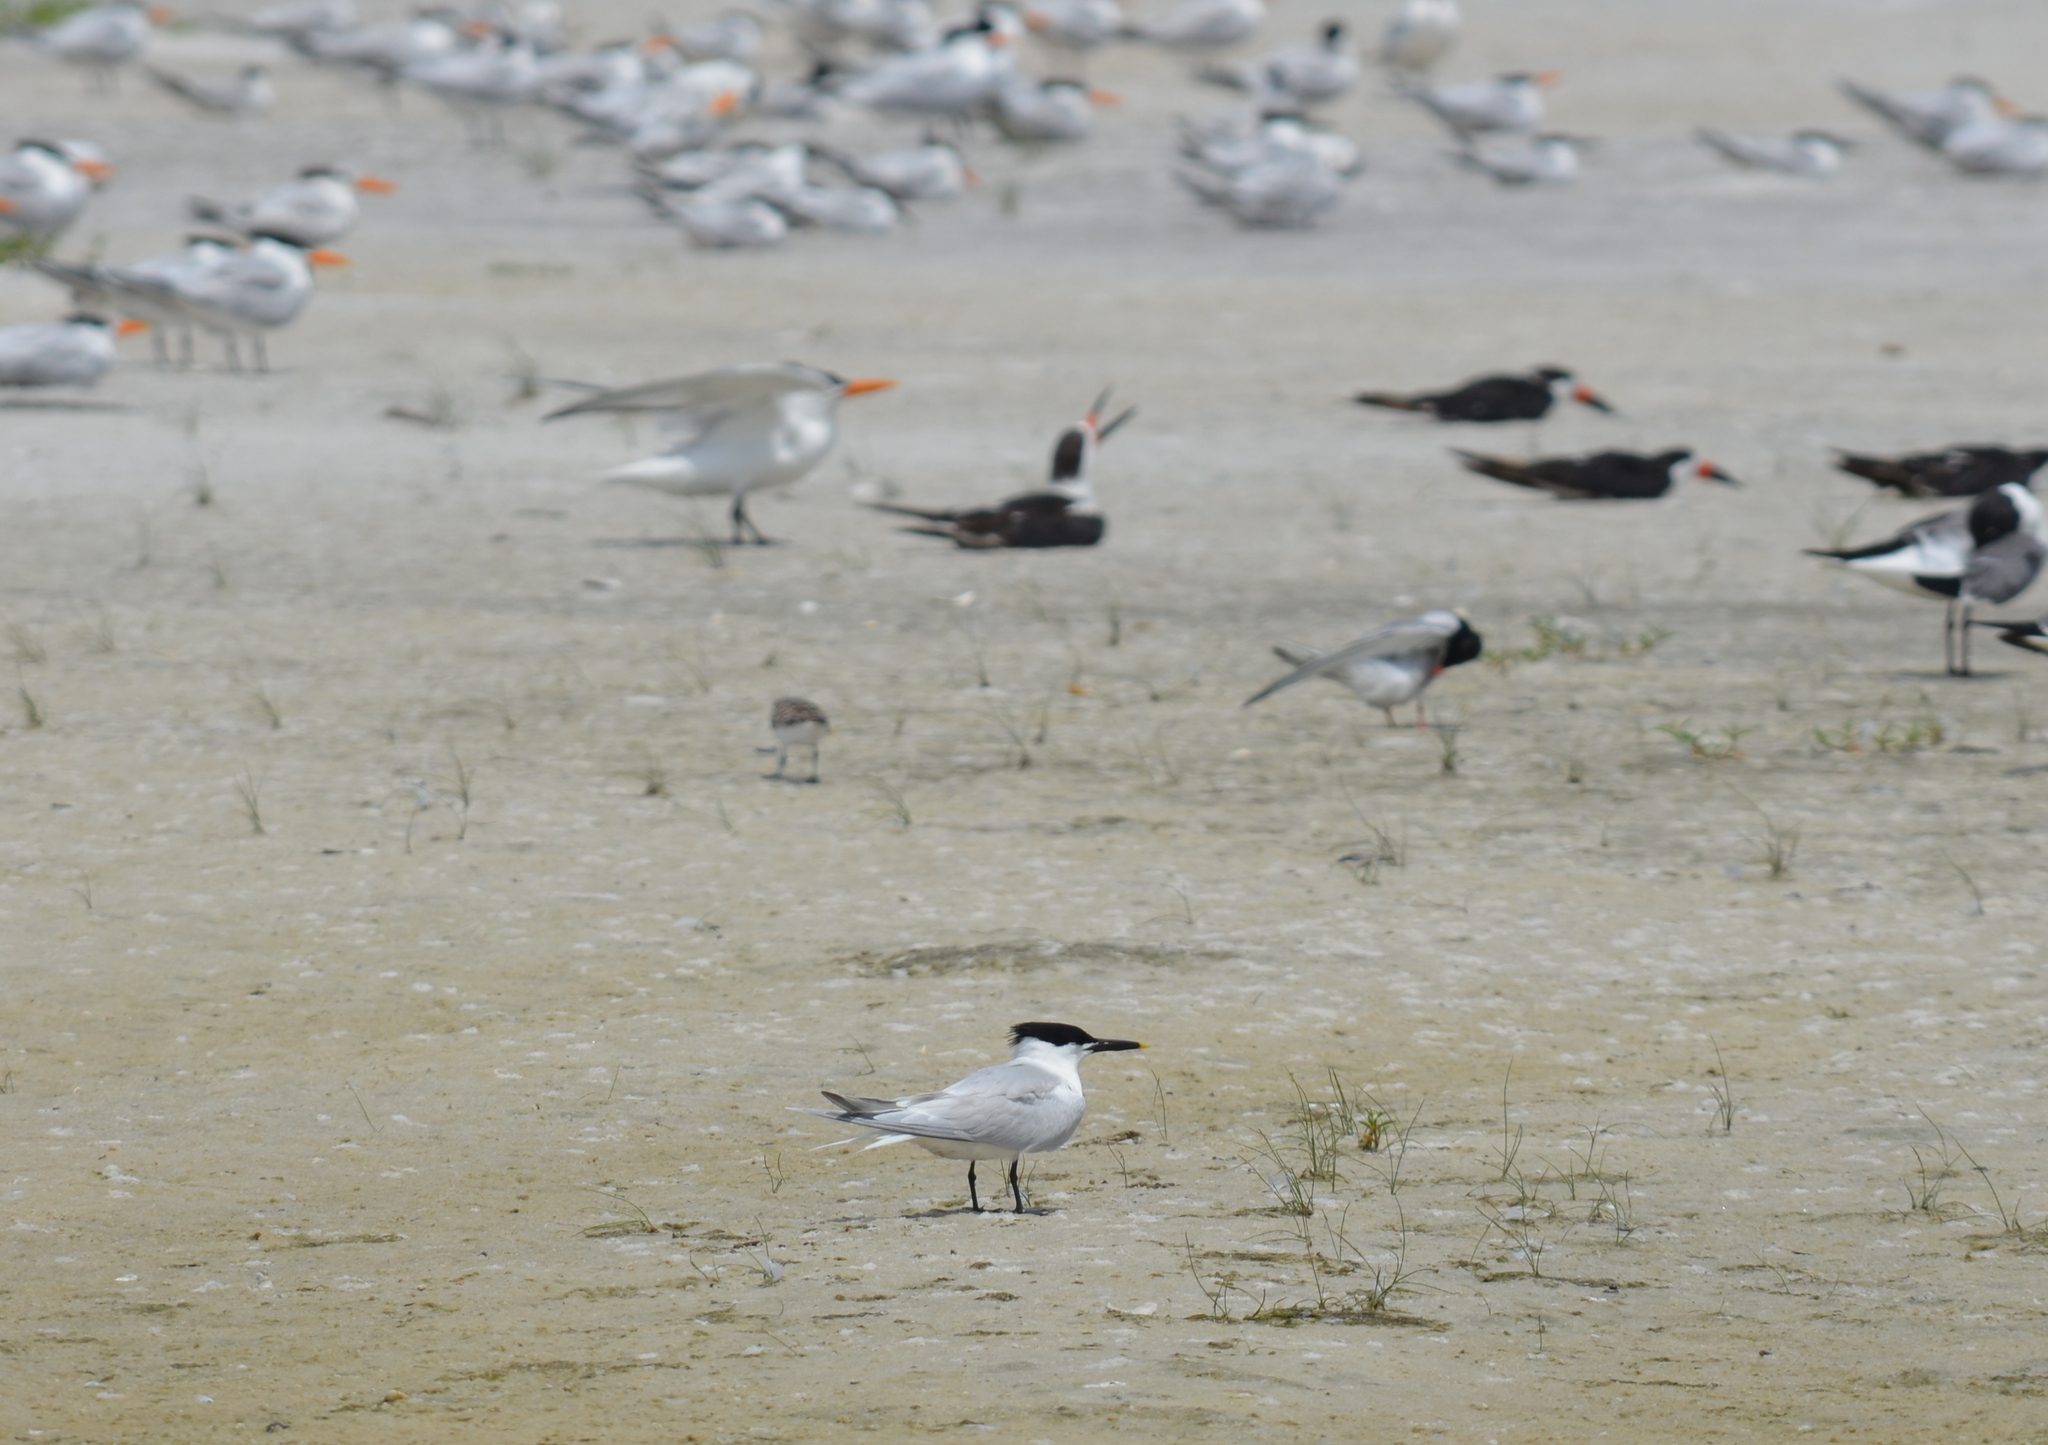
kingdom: Animalia
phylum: Chordata
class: Aves
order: Charadriiformes
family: Laridae
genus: Thalasseus
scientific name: Thalasseus sandvicensis
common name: Sandwich tern
